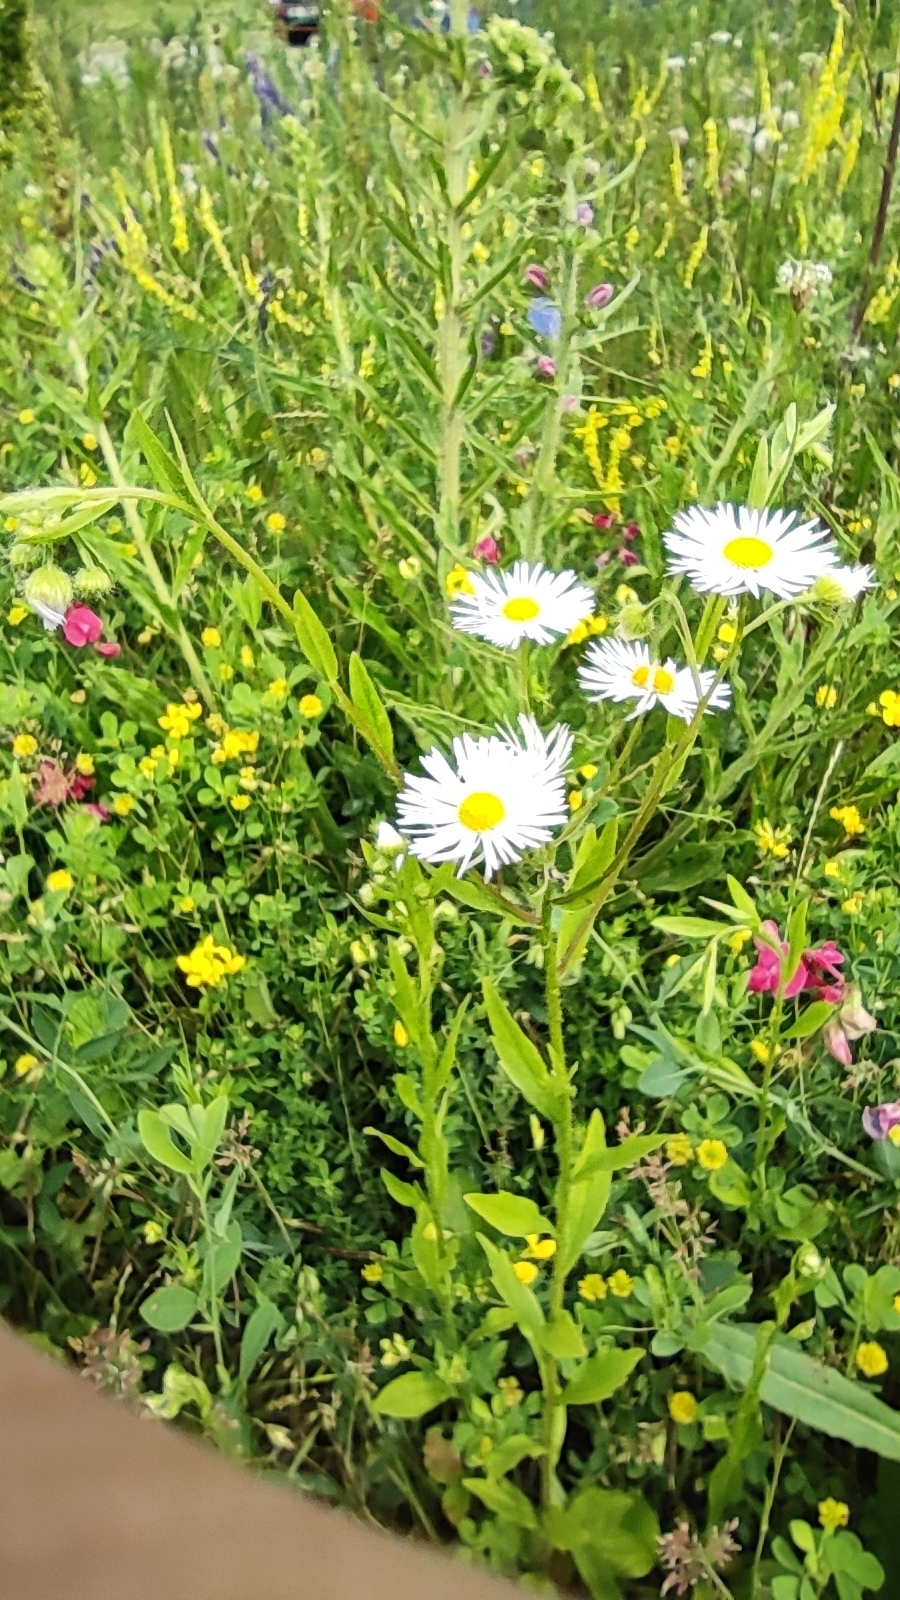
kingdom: Plantae
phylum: Tracheophyta
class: Magnoliopsida
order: Asterales
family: Asteraceae
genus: Erigeron
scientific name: Erigeron annuus
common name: Tall fleabane
